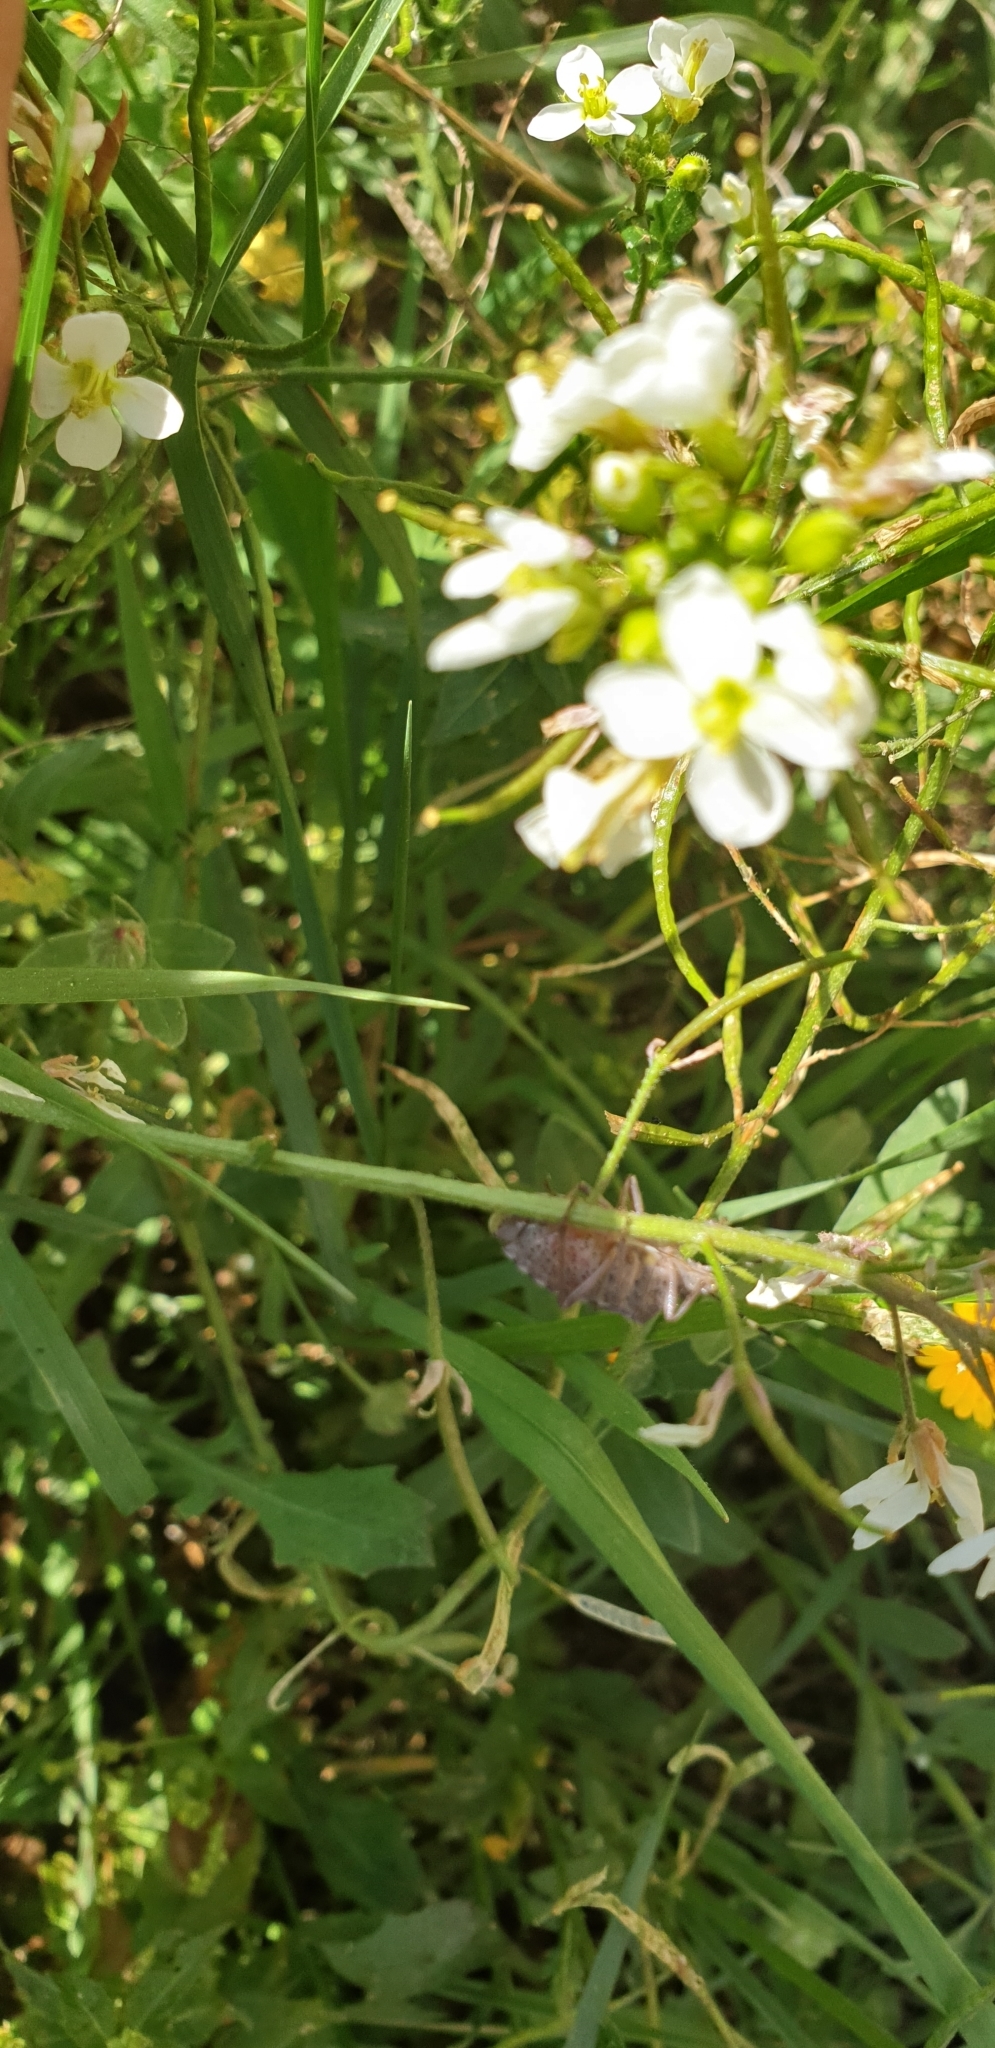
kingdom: Animalia
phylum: Arthropoda
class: Insecta
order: Hemiptera
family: Pentatomidae
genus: Rhaphigaster
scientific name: Rhaphigaster nebulosa
